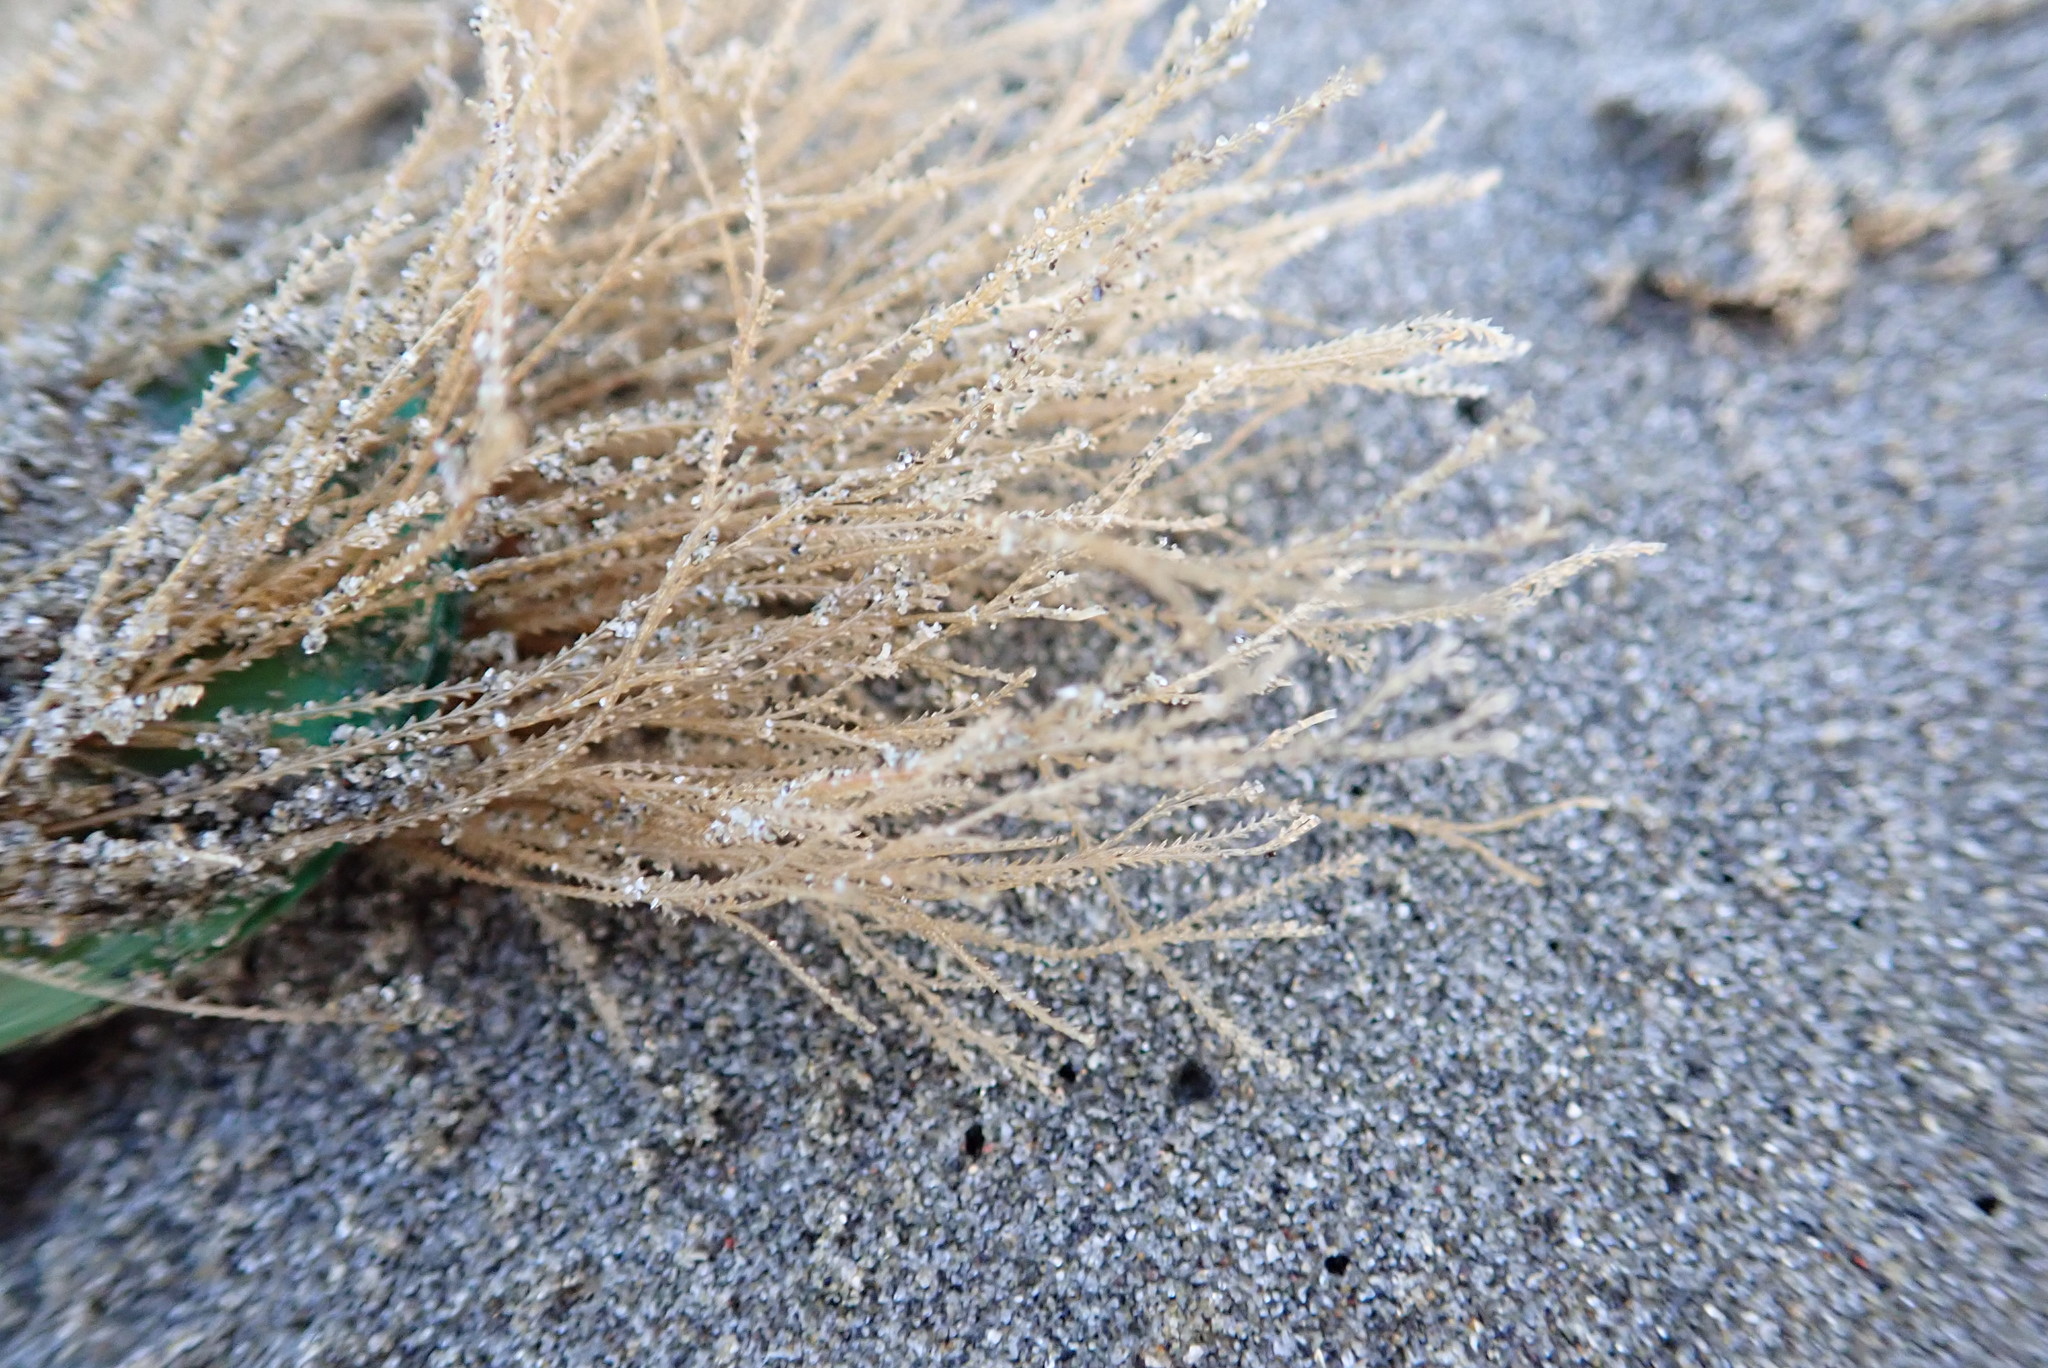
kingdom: Animalia
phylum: Cnidaria
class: Hydrozoa
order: Leptothecata
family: Sertulariidae
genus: Amphisbetia
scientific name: Amphisbetia bispinosa
